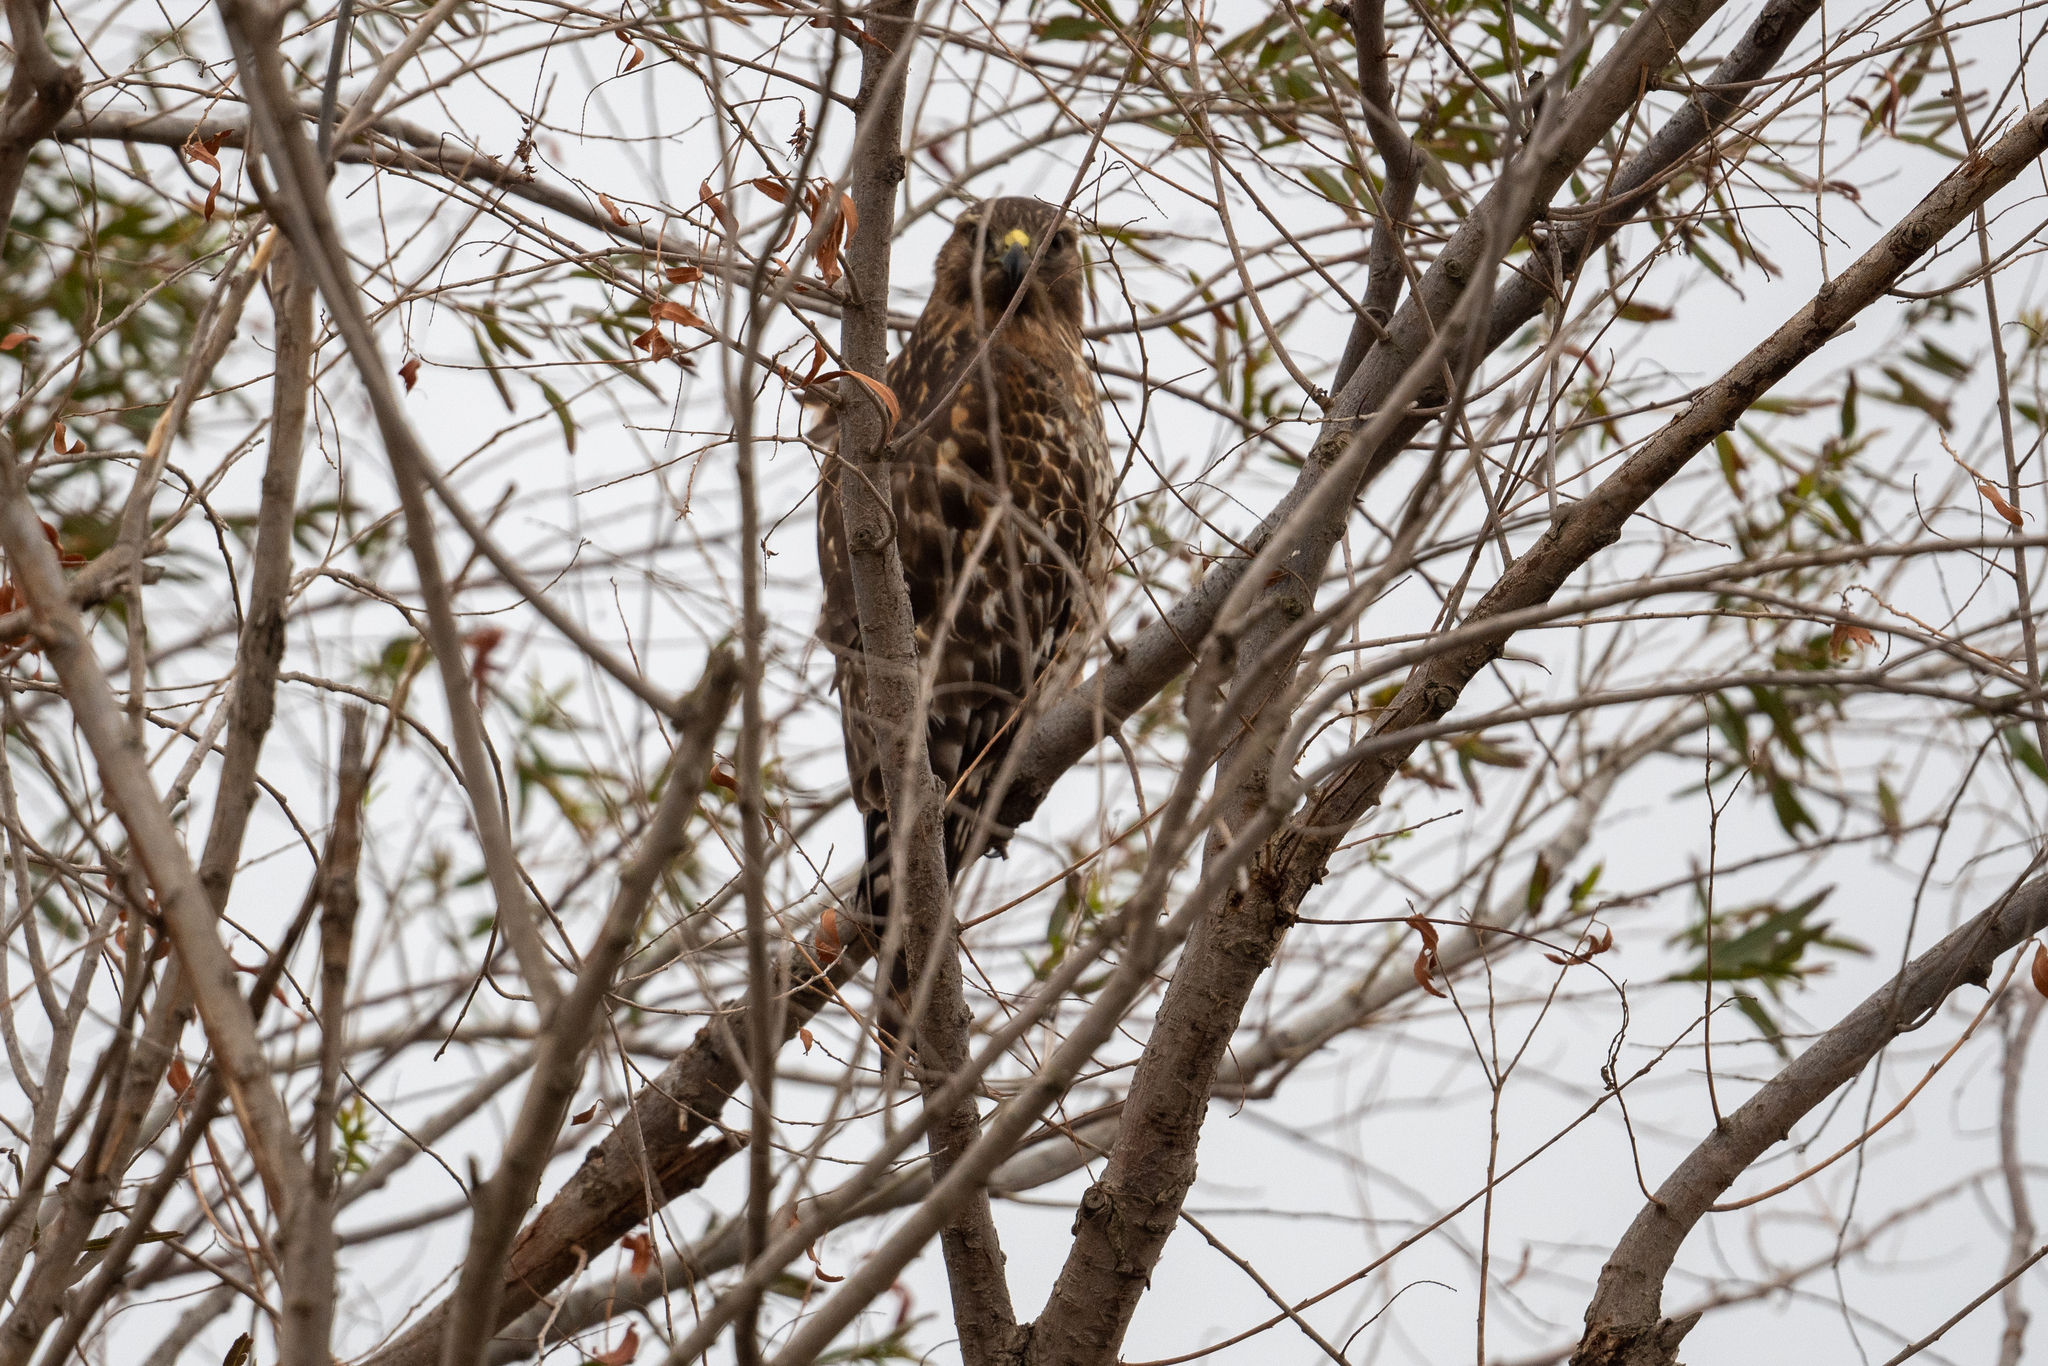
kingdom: Animalia
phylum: Chordata
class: Aves
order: Accipitriformes
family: Accipitridae
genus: Buteo
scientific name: Buteo lineatus
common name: Red-shouldered hawk
